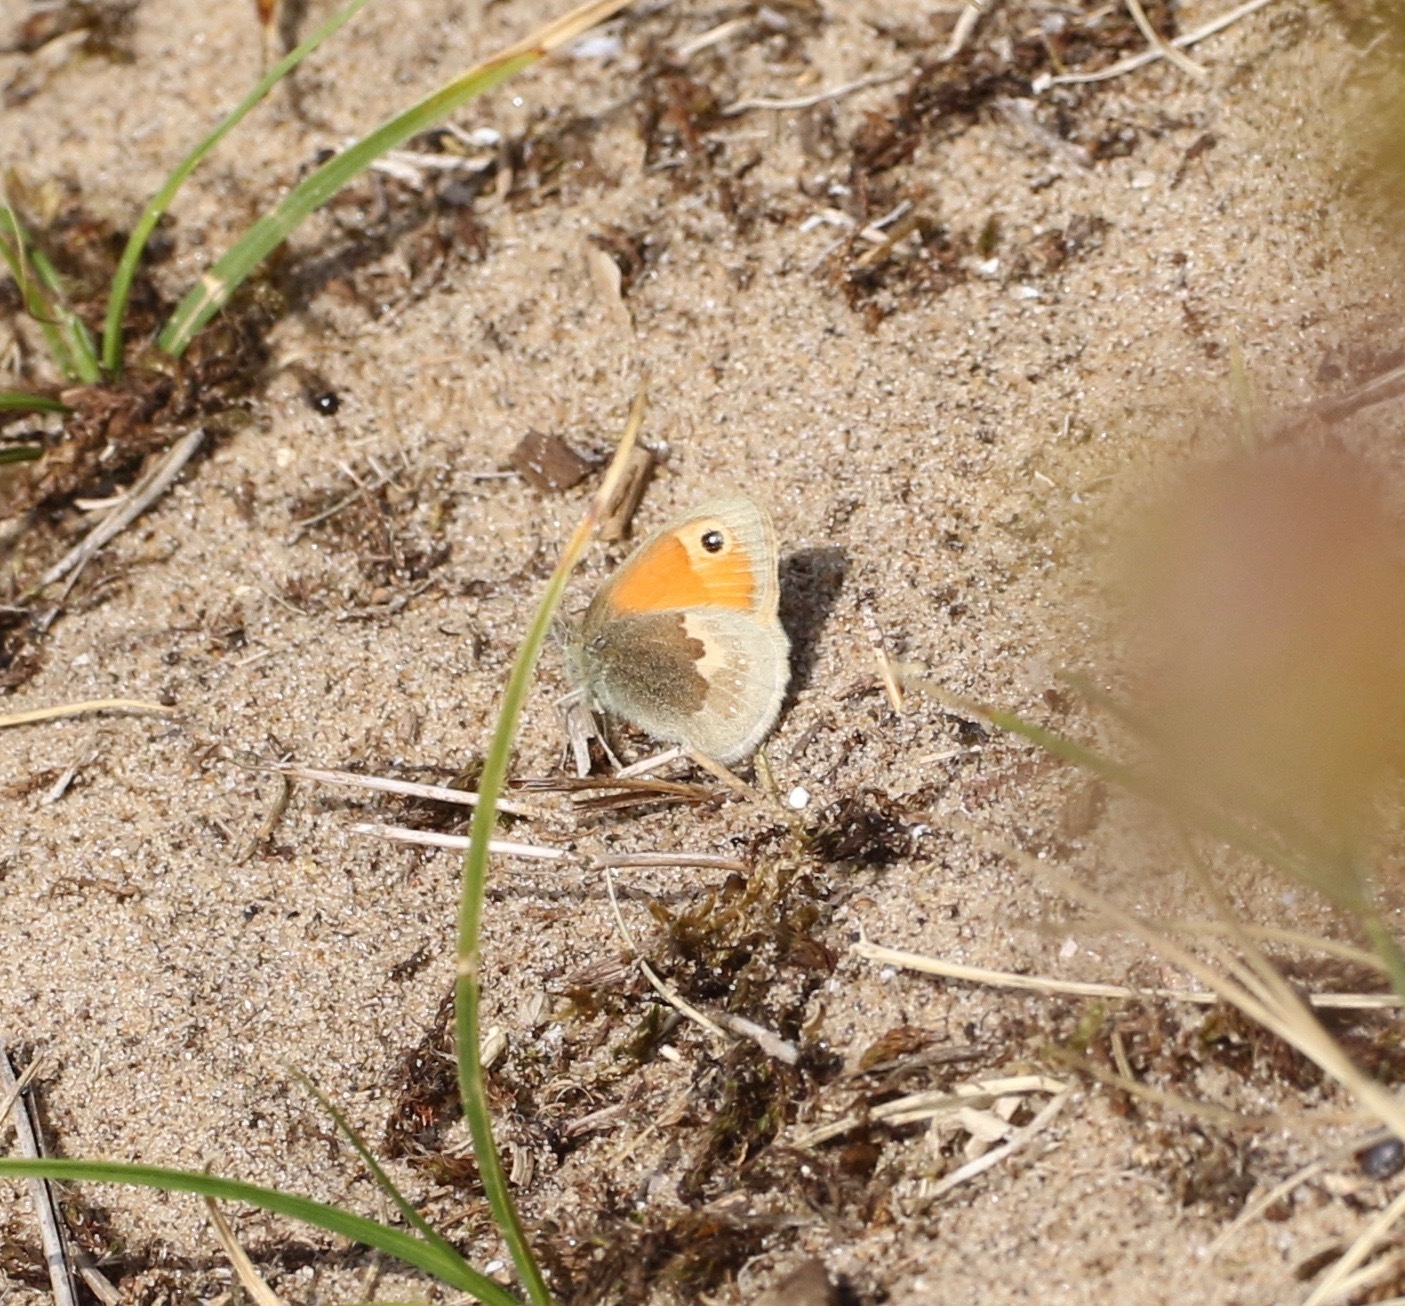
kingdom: Animalia
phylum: Arthropoda
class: Insecta
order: Lepidoptera
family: Nymphalidae
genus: Coenonympha
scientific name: Coenonympha pamphilus
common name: Small heath
